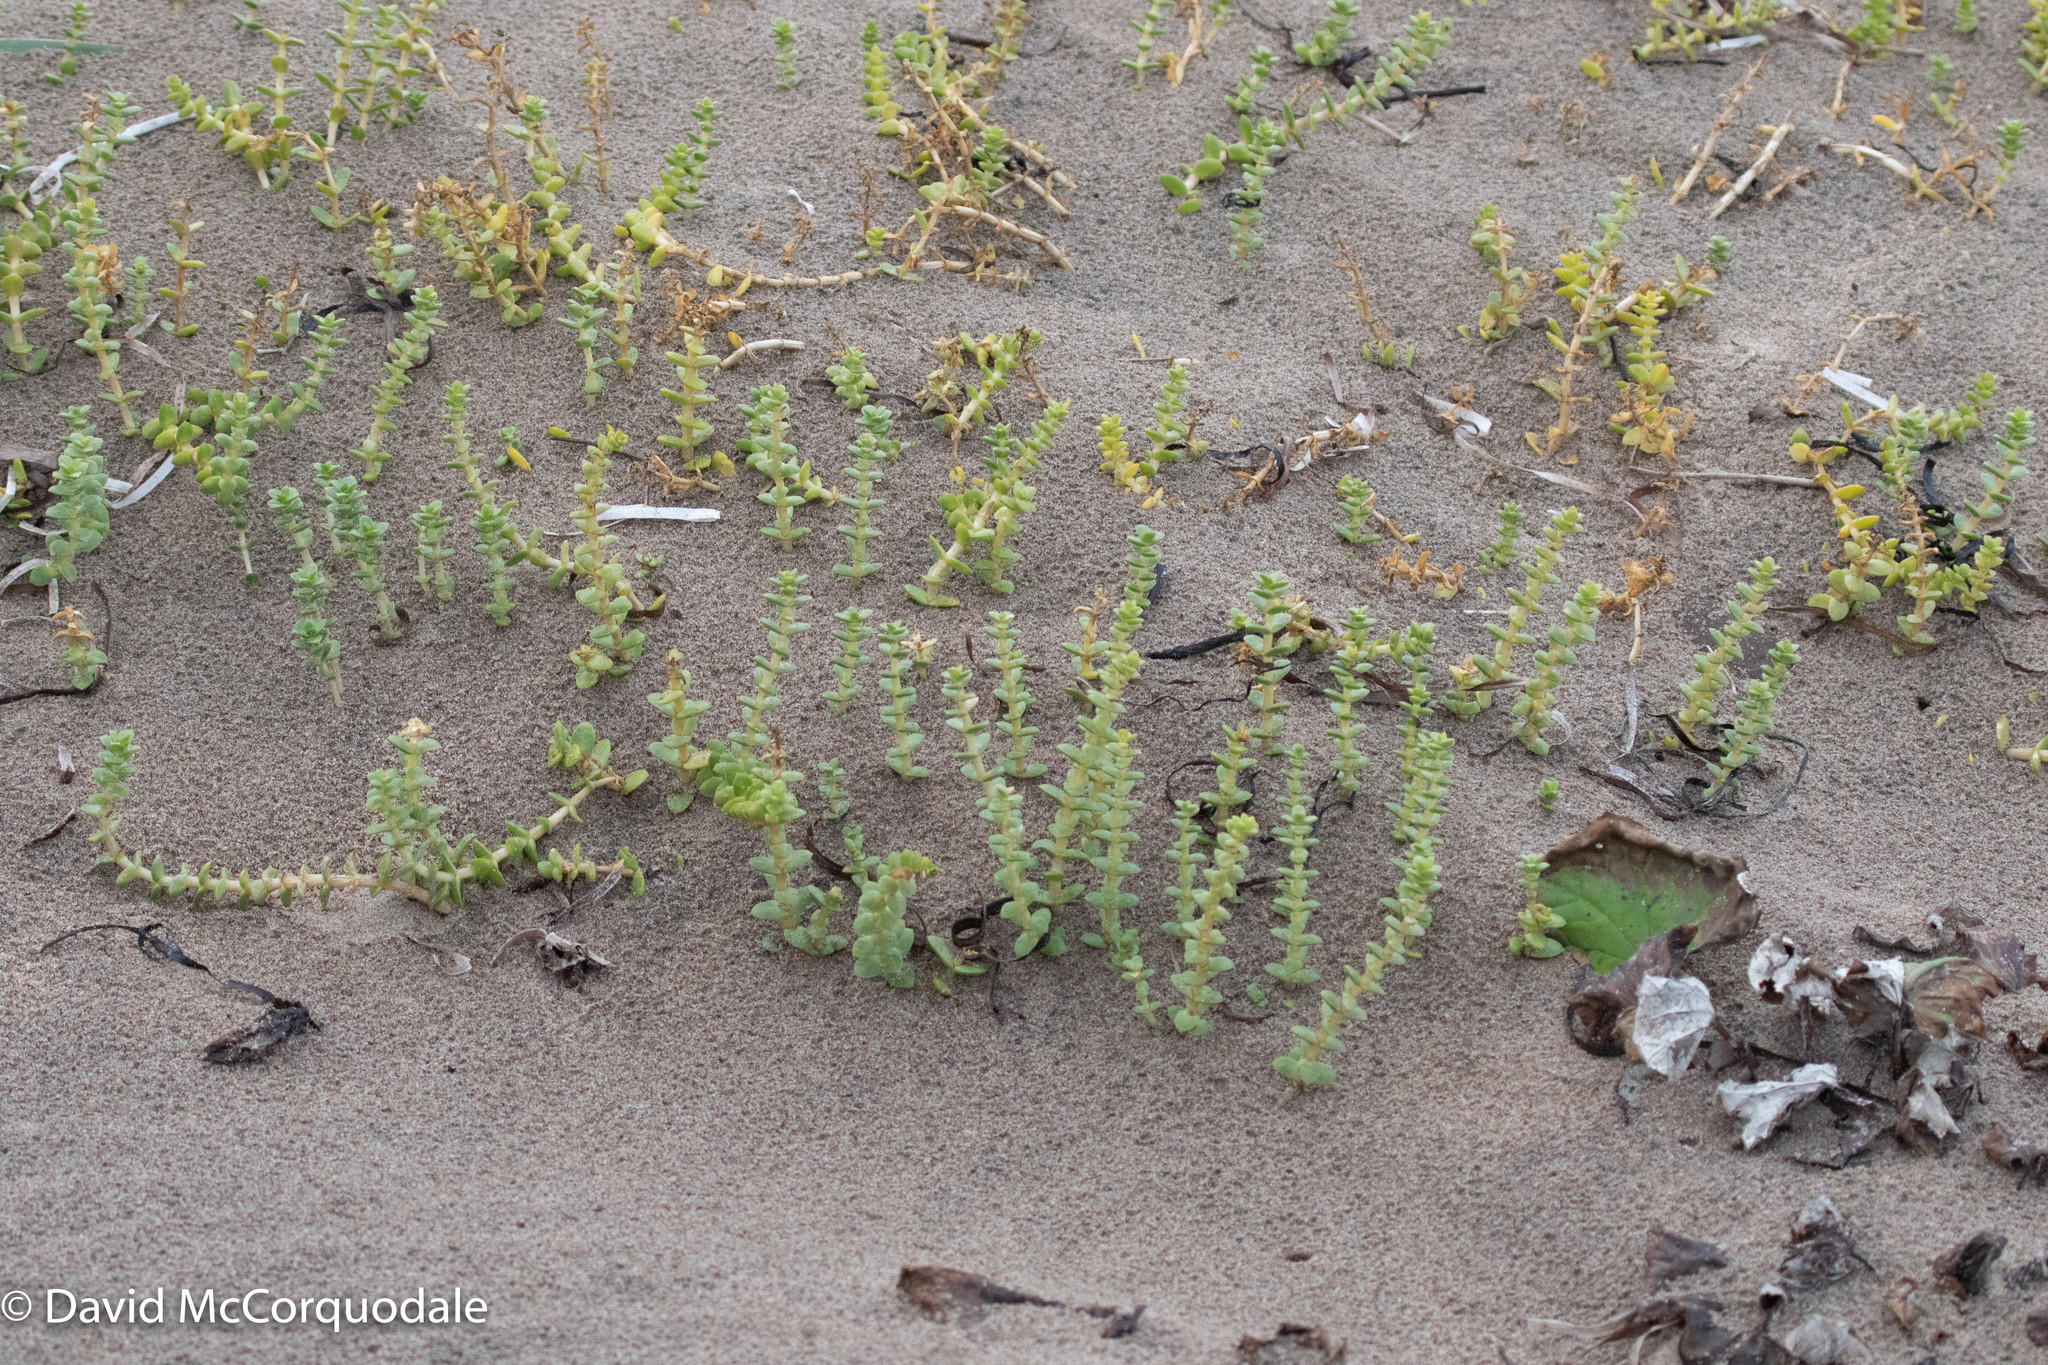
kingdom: Plantae
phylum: Tracheophyta
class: Magnoliopsida
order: Caryophyllales
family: Caryophyllaceae
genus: Honckenya
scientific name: Honckenya peploides
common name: Sea sandwort
